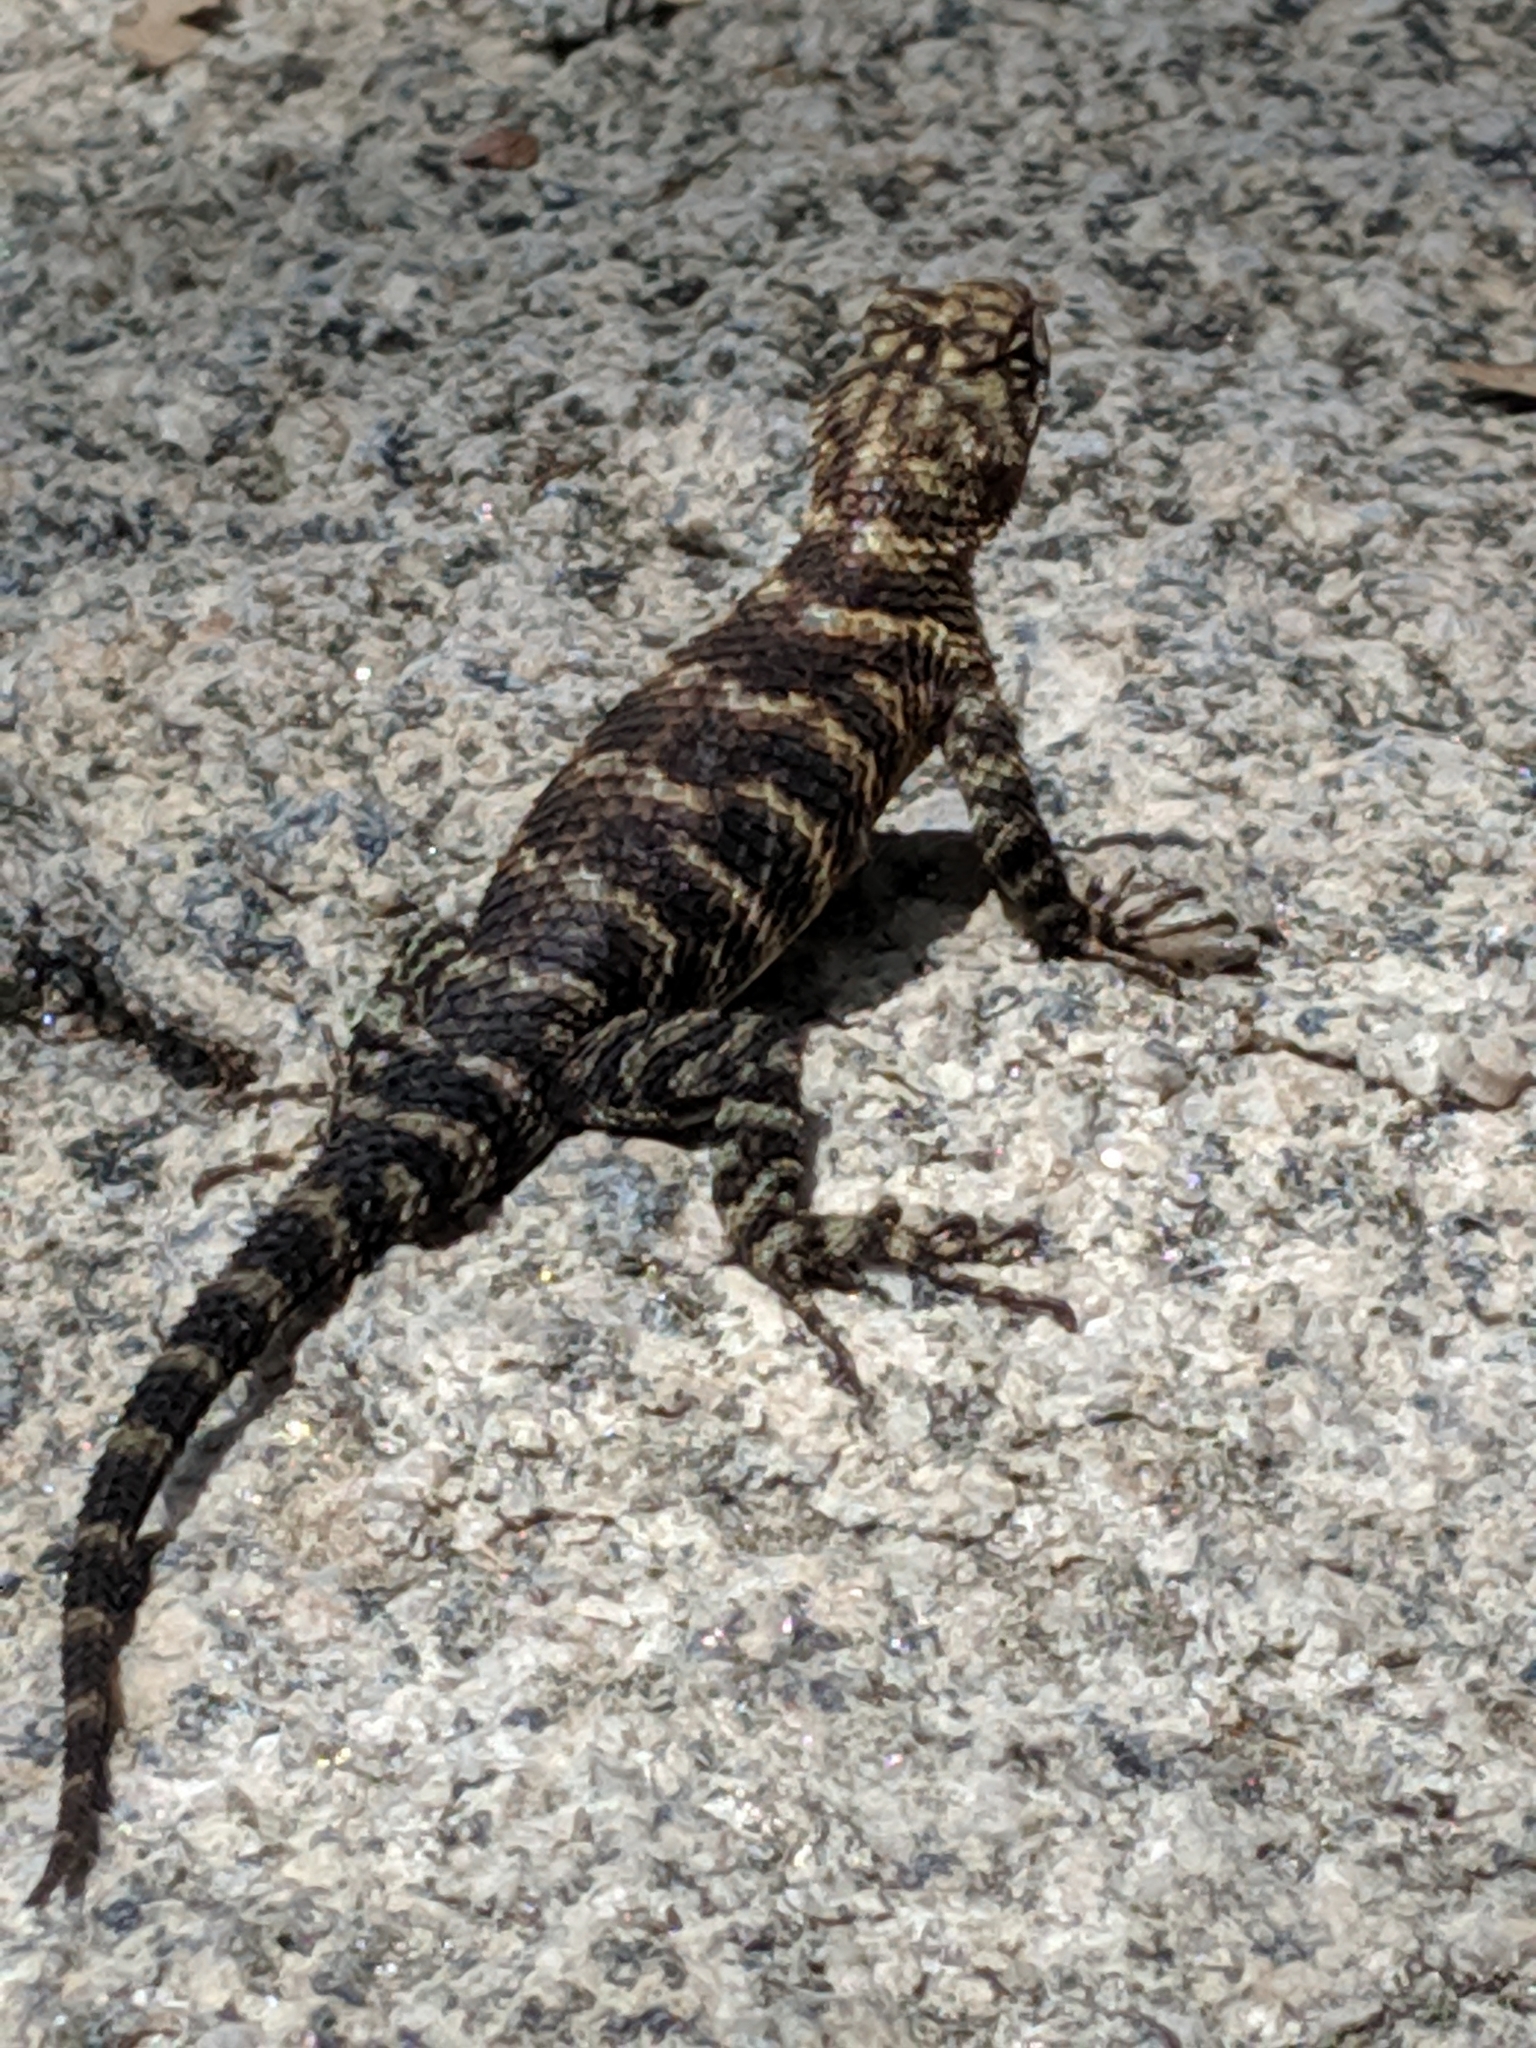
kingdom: Animalia
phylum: Chordata
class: Squamata
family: Phrynosomatidae
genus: Sceloporus
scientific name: Sceloporus orcutti
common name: Granite spiny lizard
